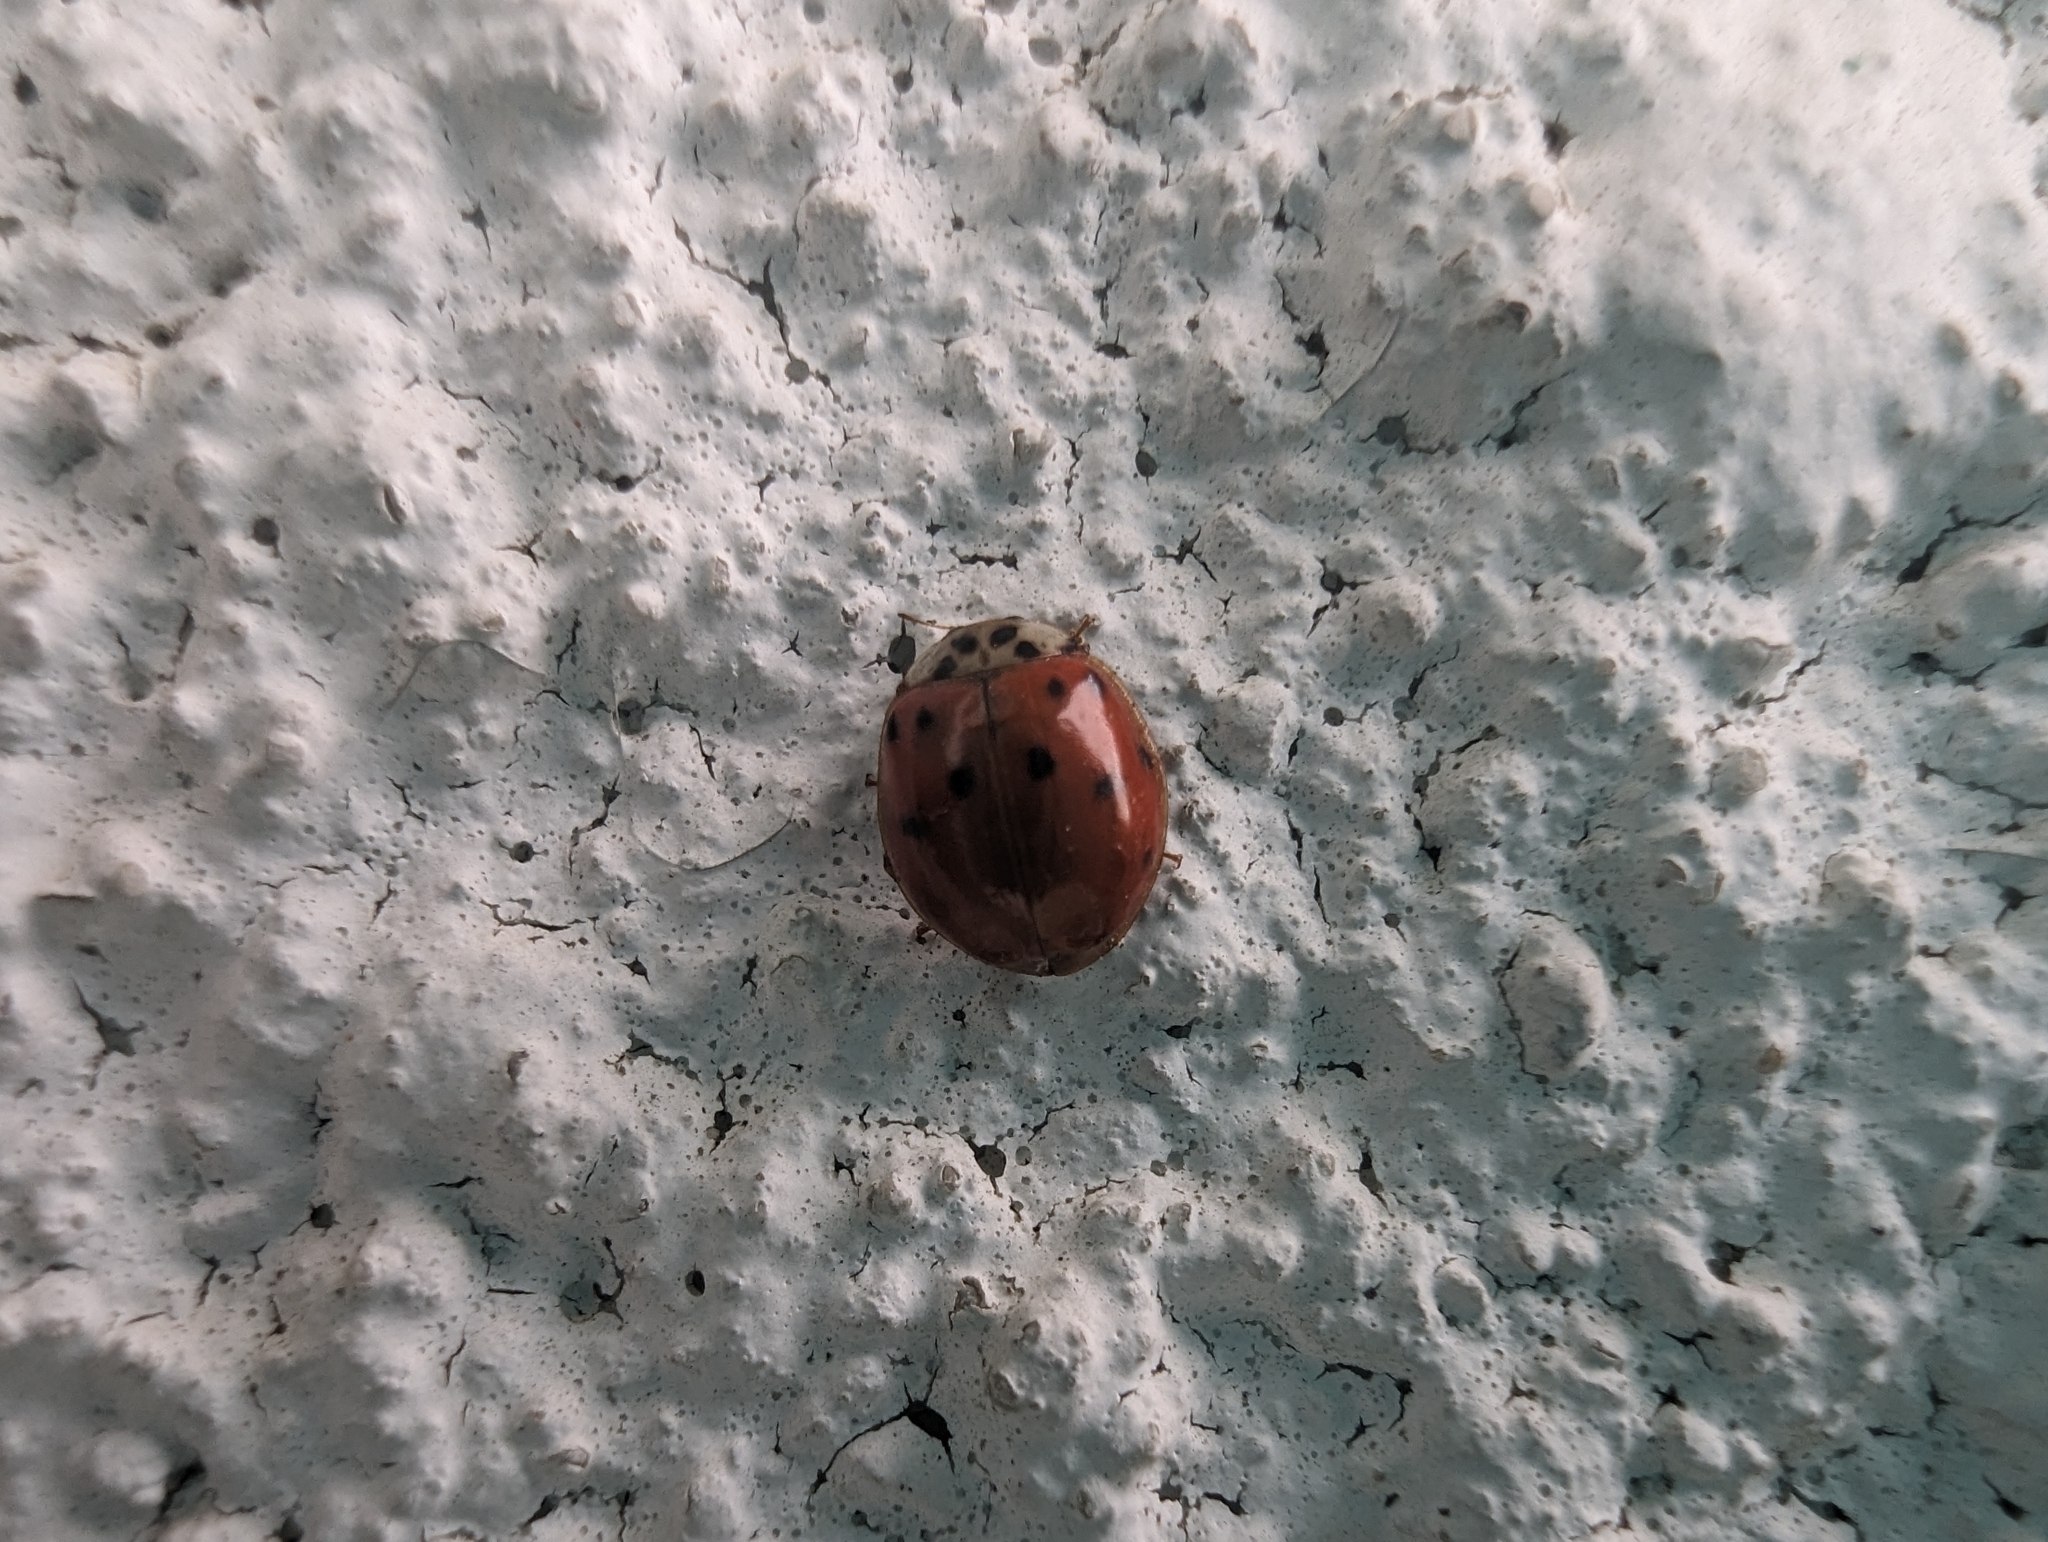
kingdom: Animalia
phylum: Arthropoda
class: Insecta
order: Coleoptera
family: Coccinellidae
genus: Harmonia
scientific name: Harmonia axyridis
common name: Harlequin ladybird
